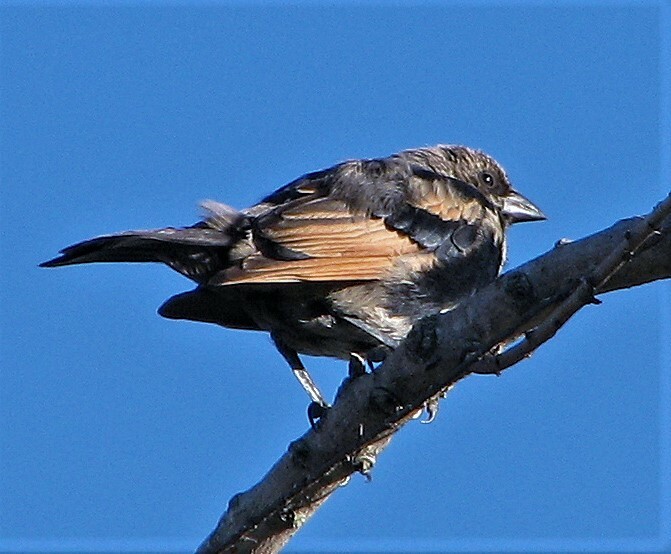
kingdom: Animalia
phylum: Chordata
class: Aves
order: Passeriformes
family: Icteridae
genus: Molothrus
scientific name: Molothrus rufoaxillaris
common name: Screaming cowbird
